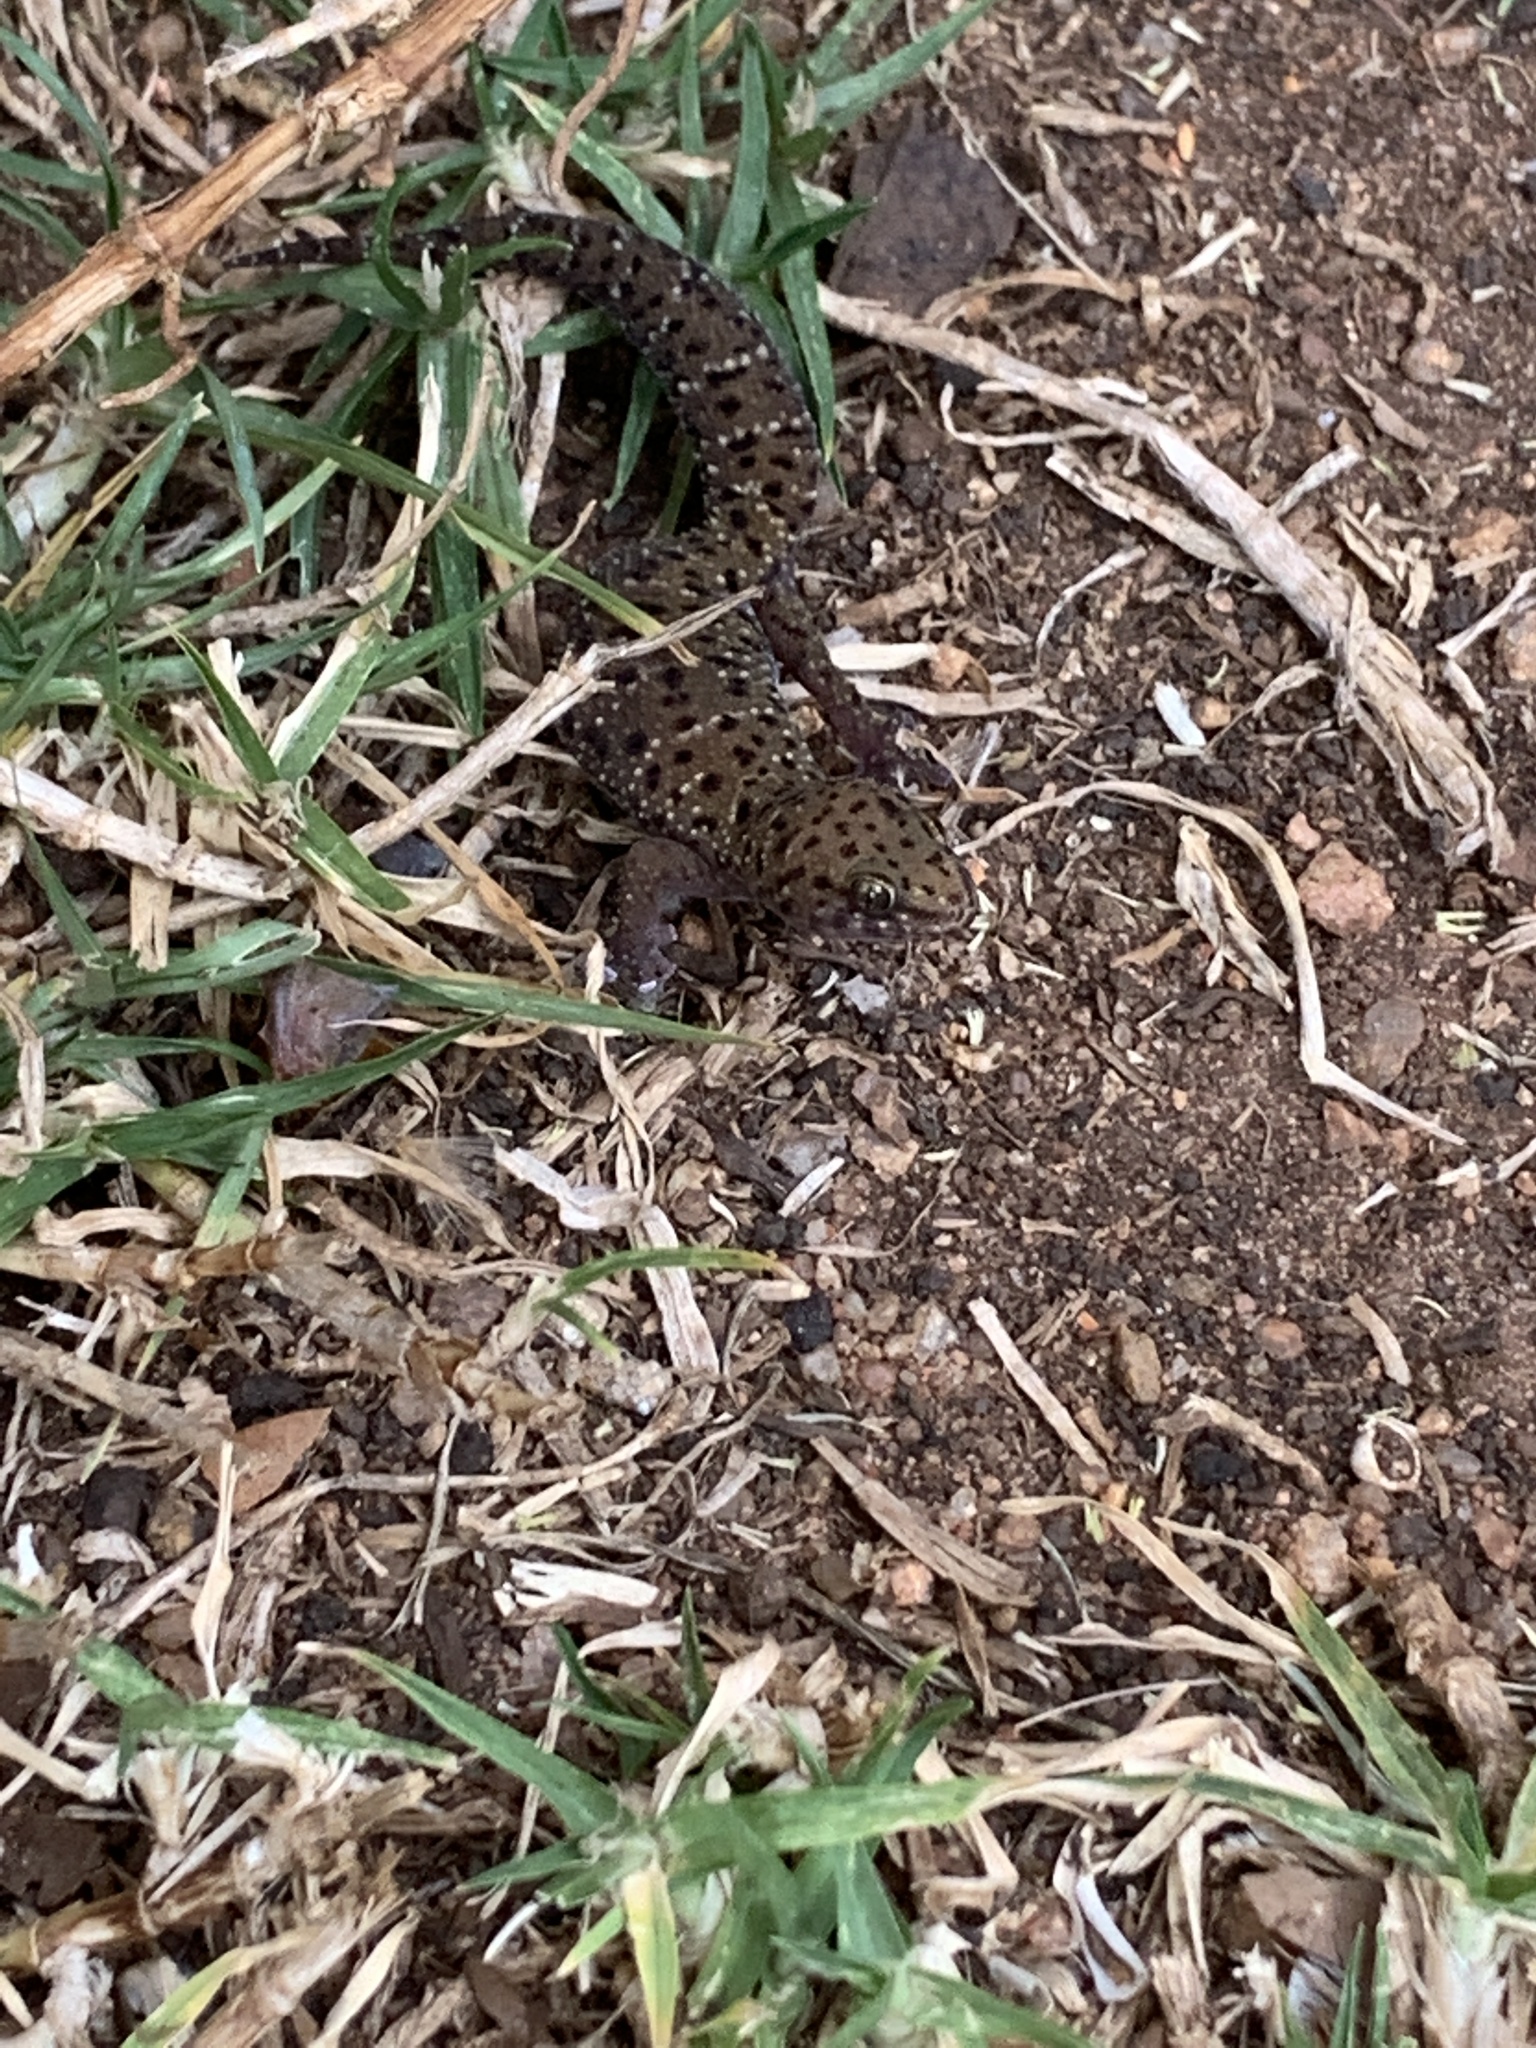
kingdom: Animalia
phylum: Chordata
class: Squamata
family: Gekkonidae
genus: Pachydactylus
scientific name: Pachydactylus affinis
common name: Transvaal gecko
